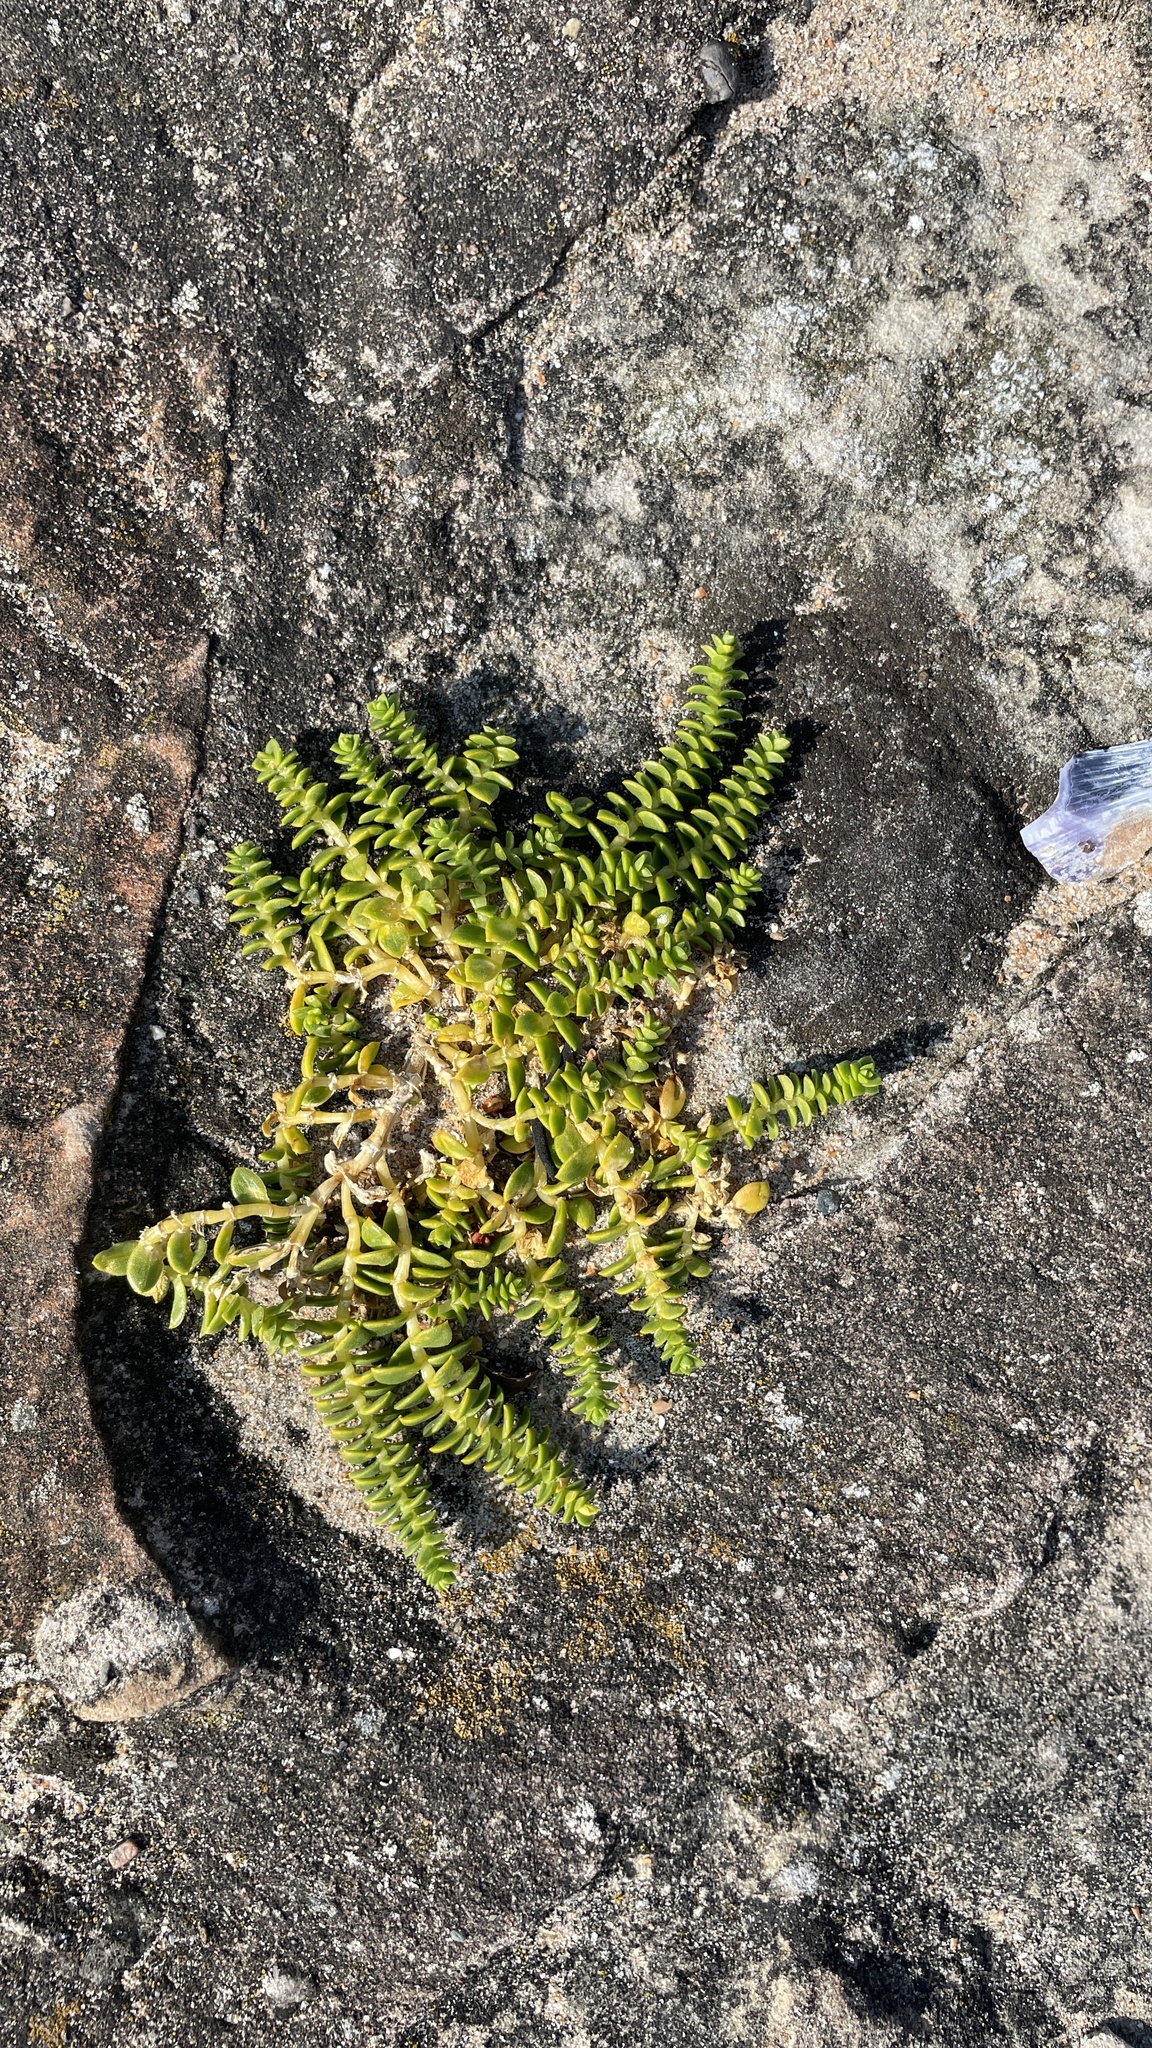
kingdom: Plantae
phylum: Tracheophyta
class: Magnoliopsida
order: Caryophyllales
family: Caryophyllaceae
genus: Honckenya
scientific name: Honckenya peploides
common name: Sea sandwort
